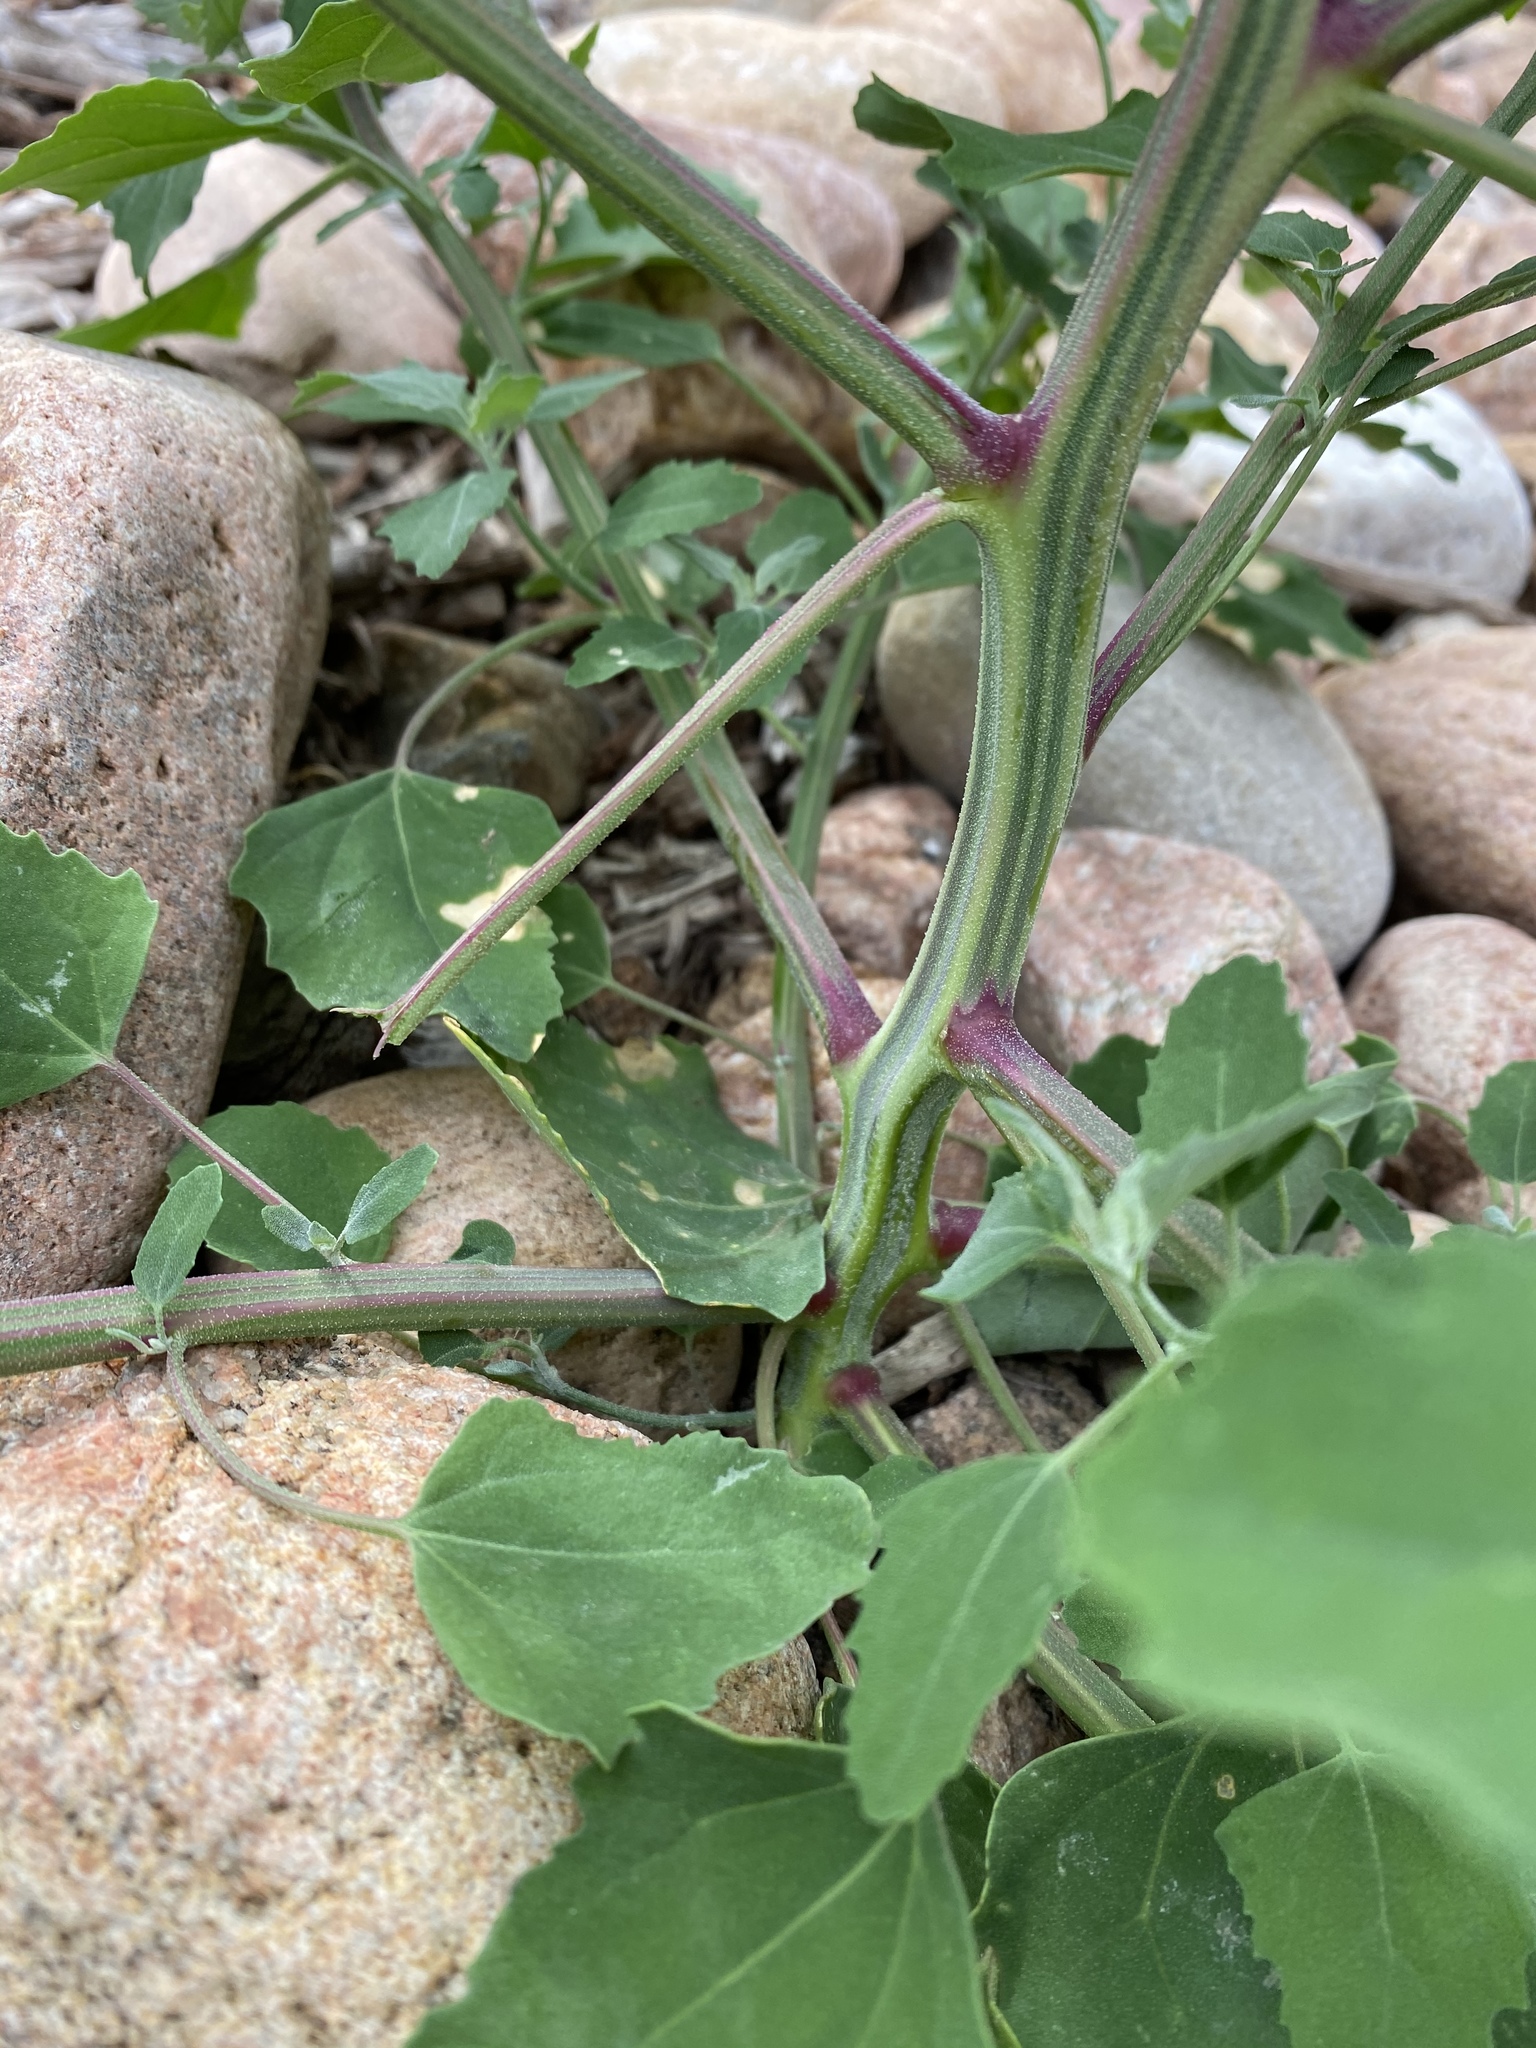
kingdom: Plantae
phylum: Tracheophyta
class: Magnoliopsida
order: Caryophyllales
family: Amaranthaceae
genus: Chenopodium
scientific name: Chenopodium album
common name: Fat-hen
